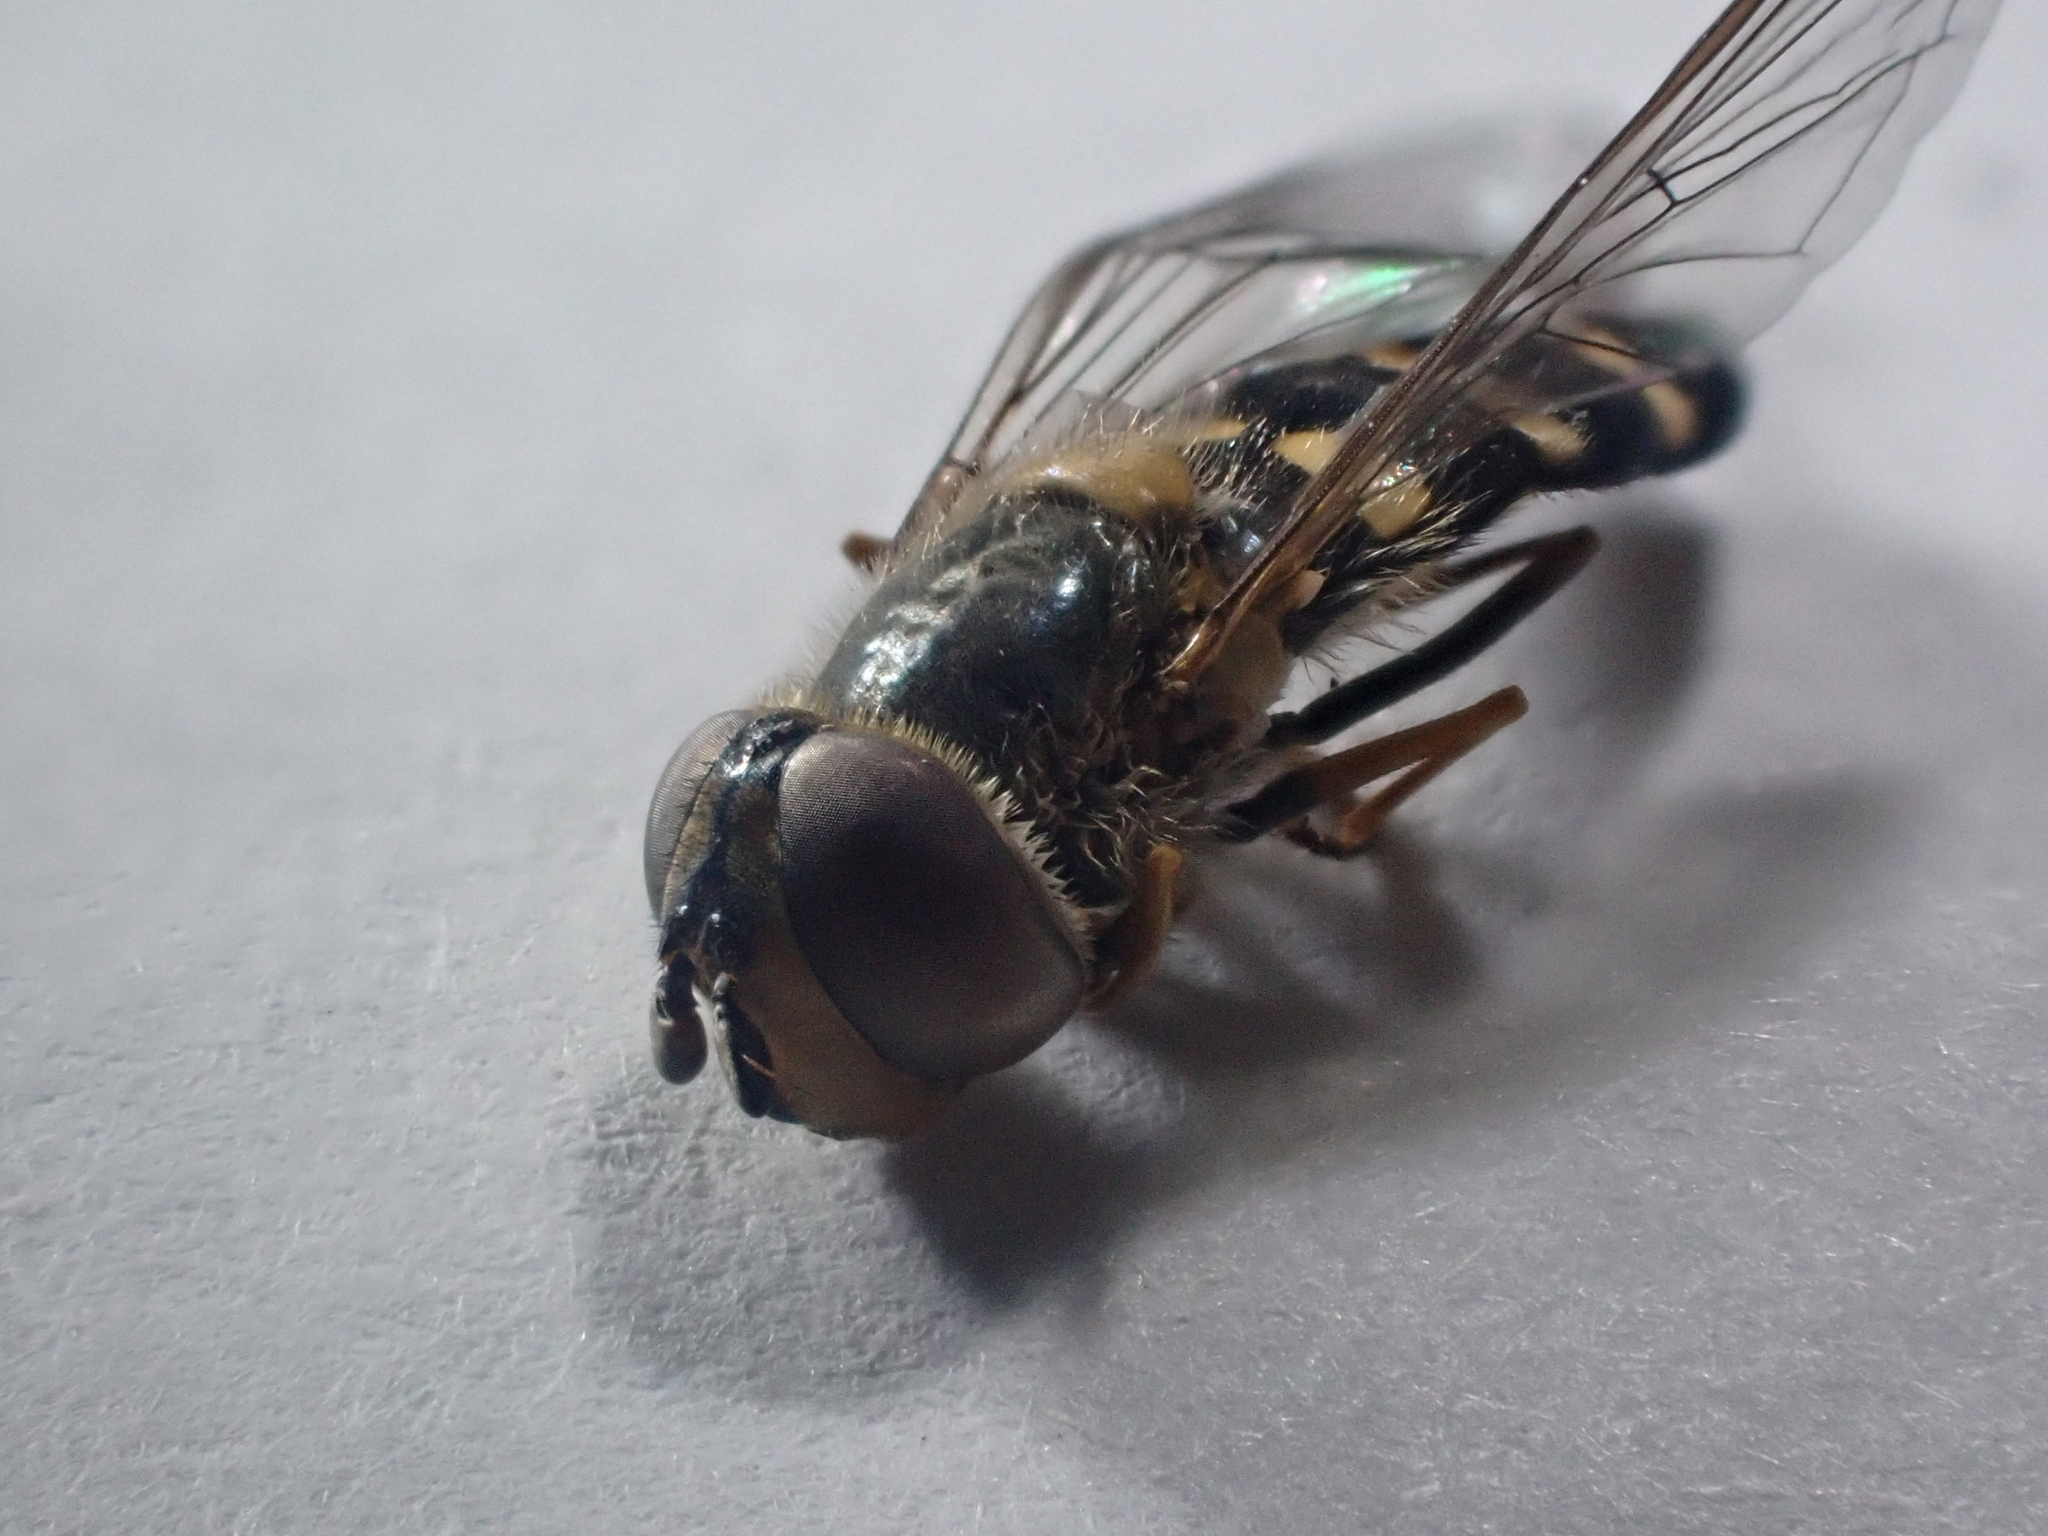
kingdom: Animalia
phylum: Arthropoda
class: Insecta
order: Diptera
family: Syrphidae
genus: Eupeodes
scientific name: Eupeodes
